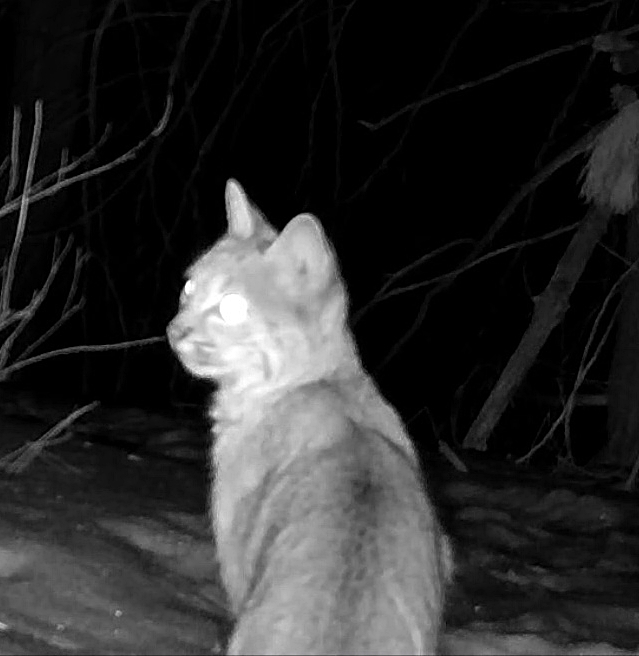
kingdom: Animalia
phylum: Chordata
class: Mammalia
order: Carnivora
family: Felidae
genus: Lynx
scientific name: Lynx rufus
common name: Bobcat
